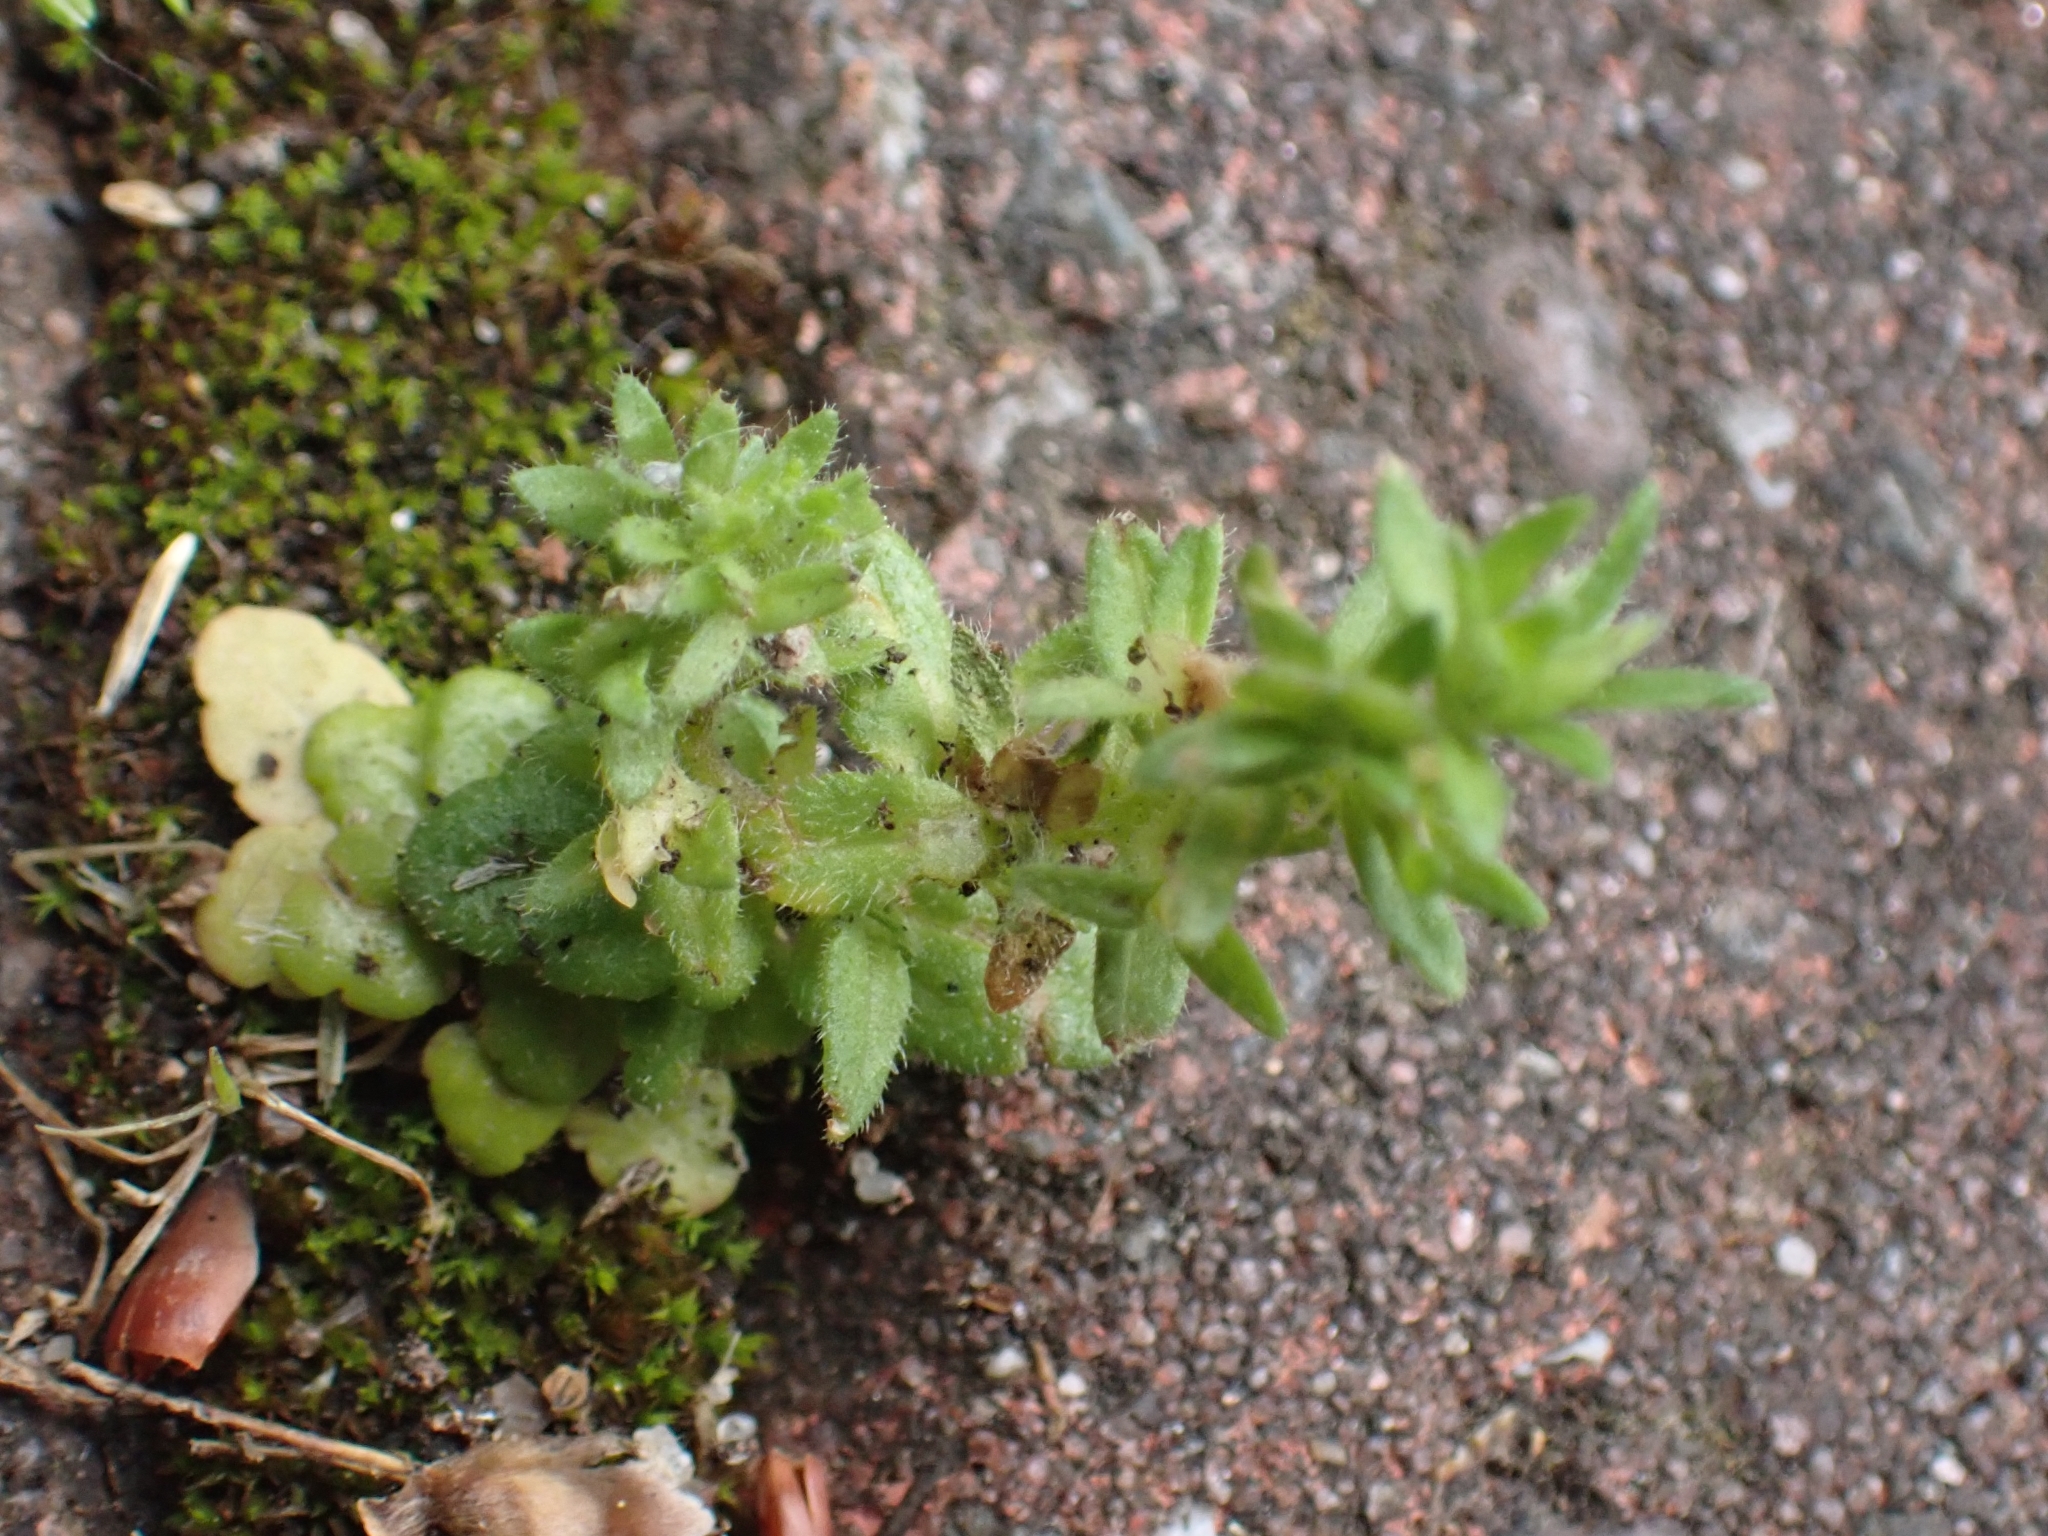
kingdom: Plantae
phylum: Tracheophyta
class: Magnoliopsida
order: Lamiales
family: Plantaginaceae
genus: Veronica
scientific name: Veronica arvensis
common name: Corn speedwell
